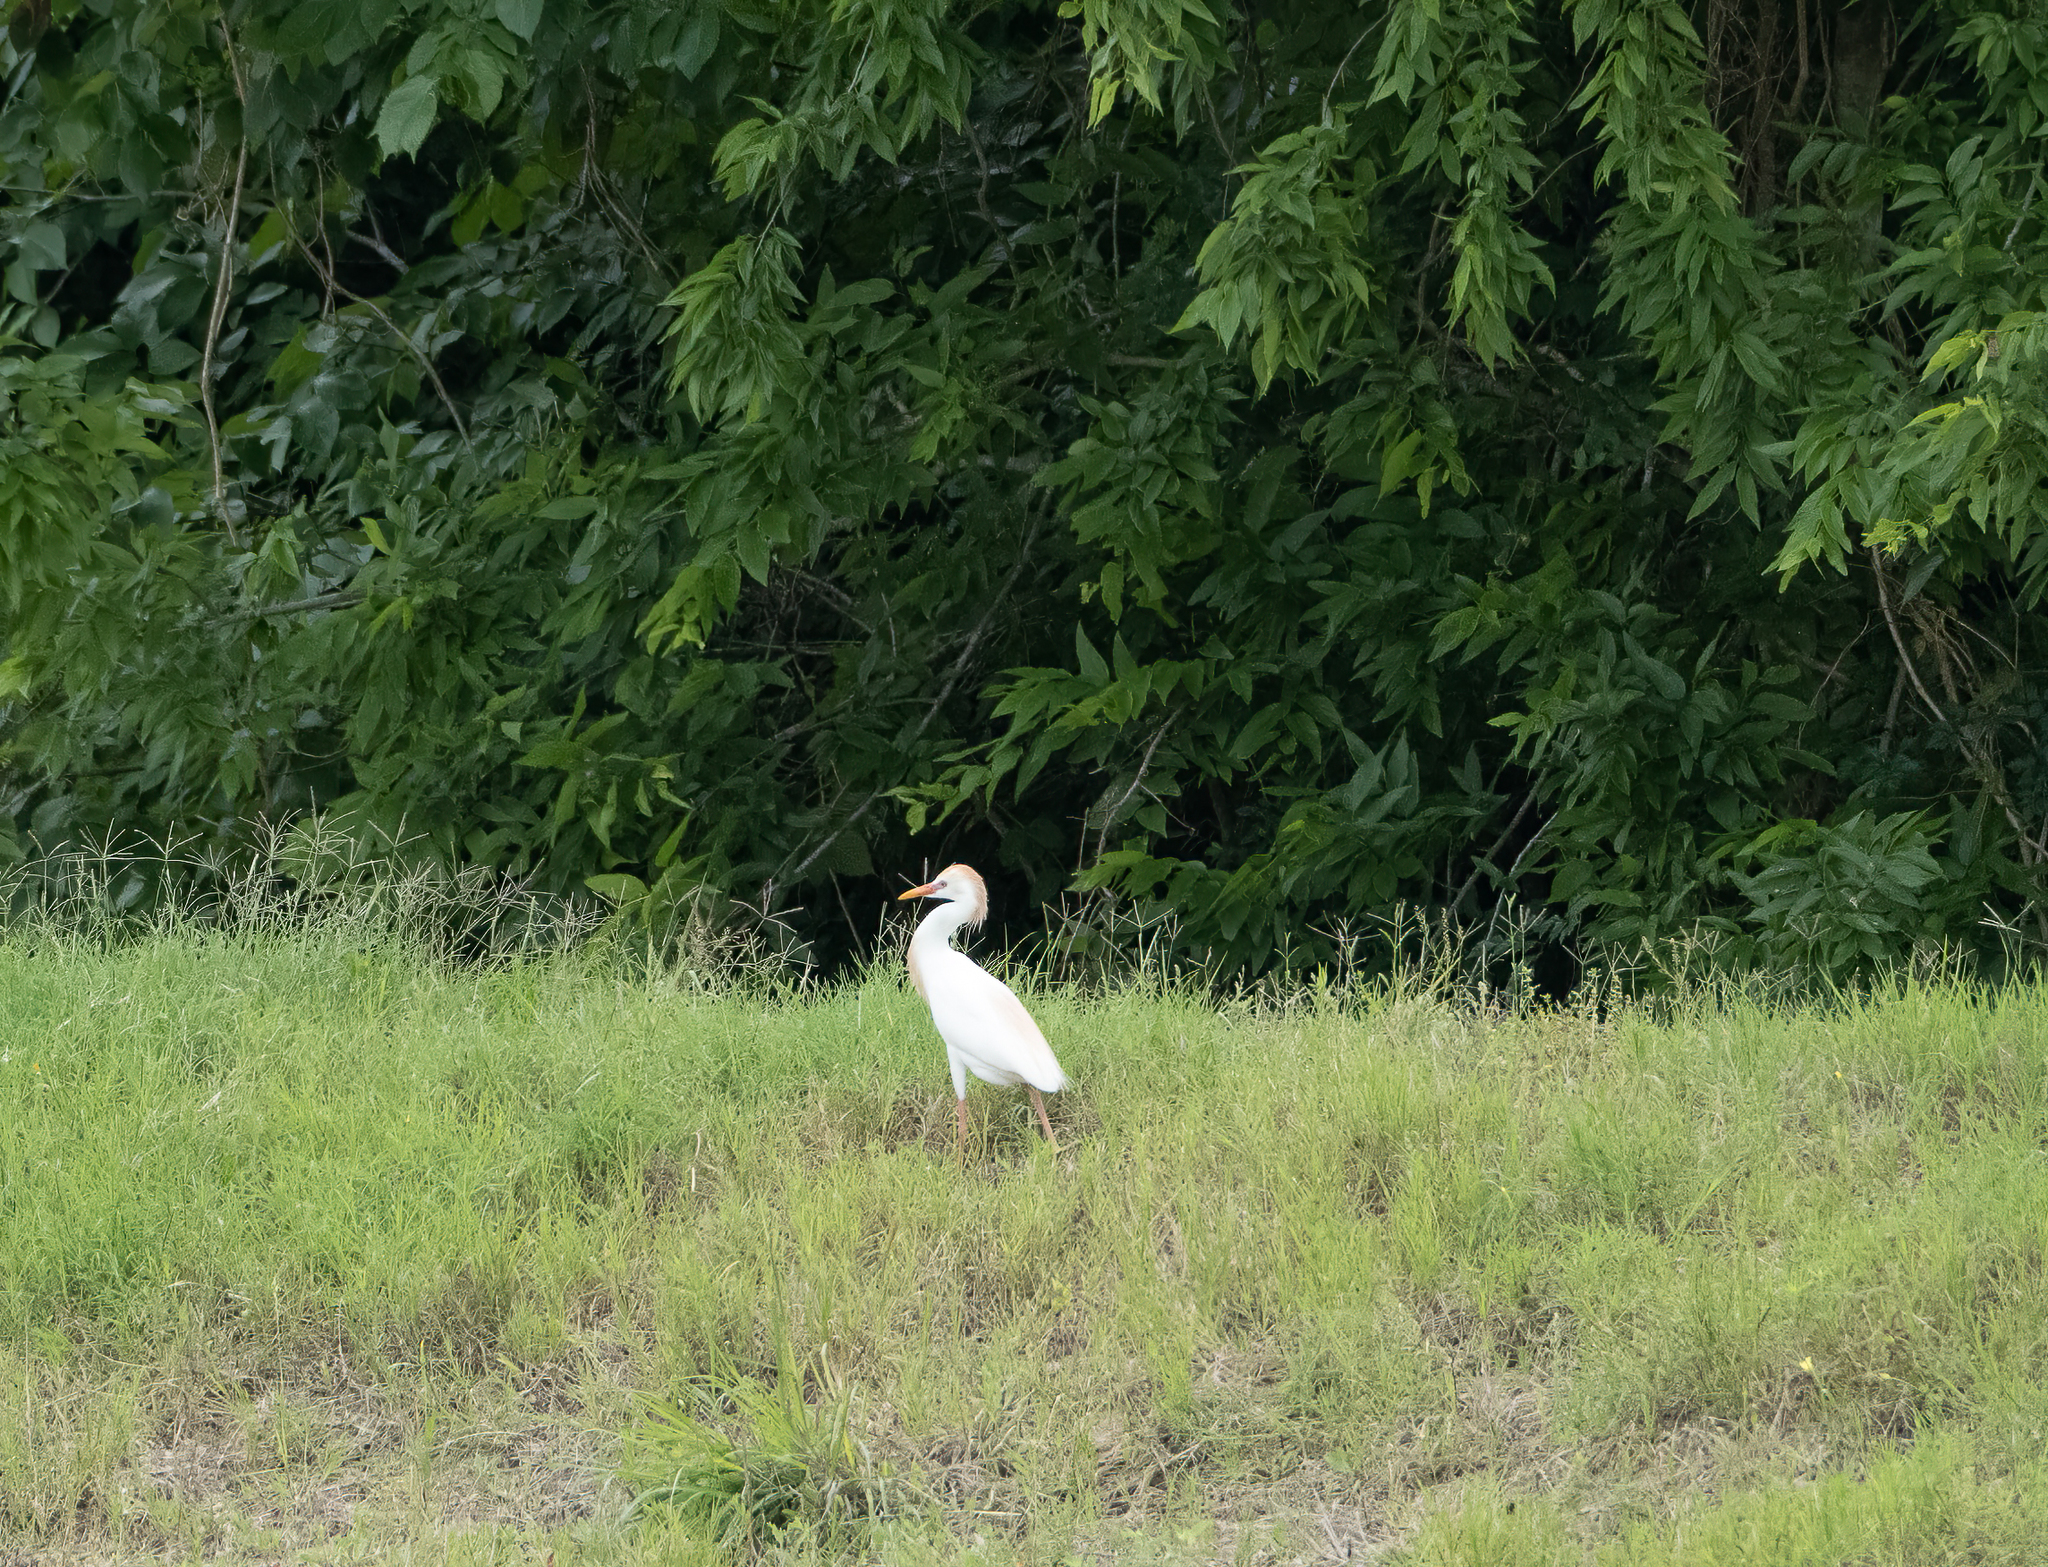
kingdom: Animalia
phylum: Chordata
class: Aves
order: Pelecaniformes
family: Ardeidae
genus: Bubulcus
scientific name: Bubulcus ibis
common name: Cattle egret
